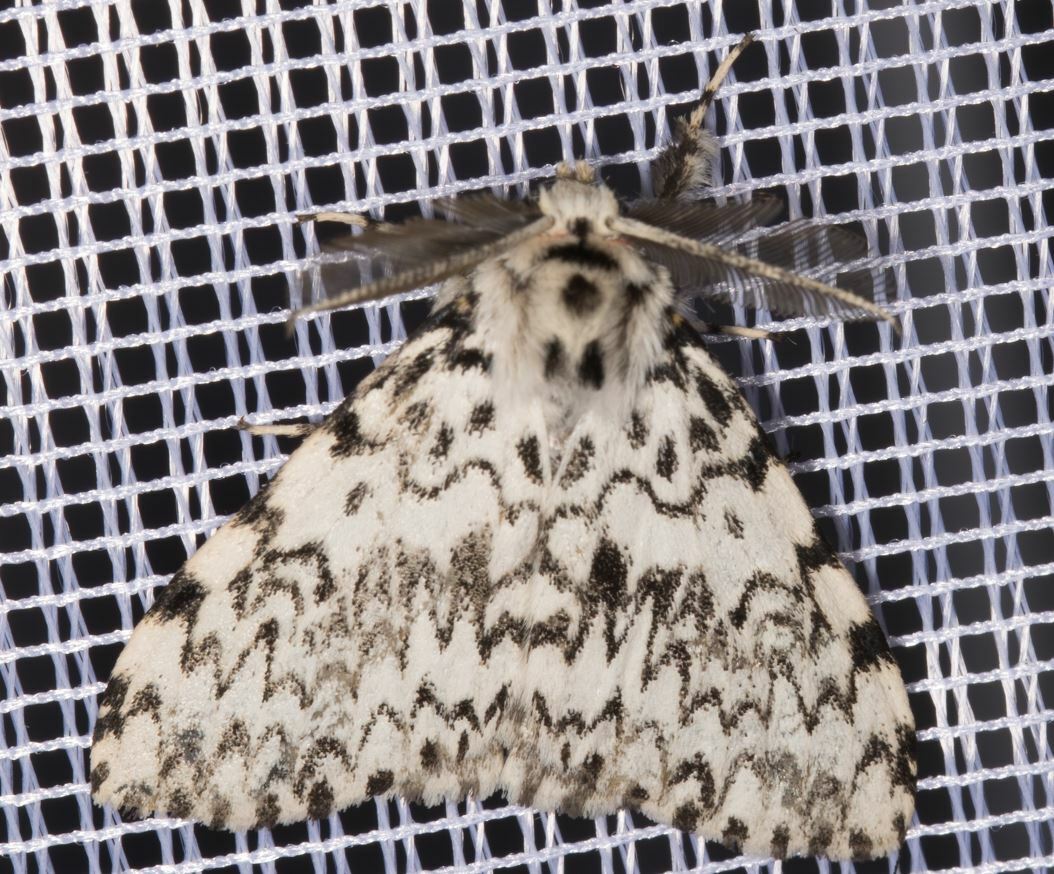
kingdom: Animalia
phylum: Arthropoda
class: Insecta
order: Lepidoptera
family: Erebidae
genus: Lymantria
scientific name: Lymantria monacha
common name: Black arches
